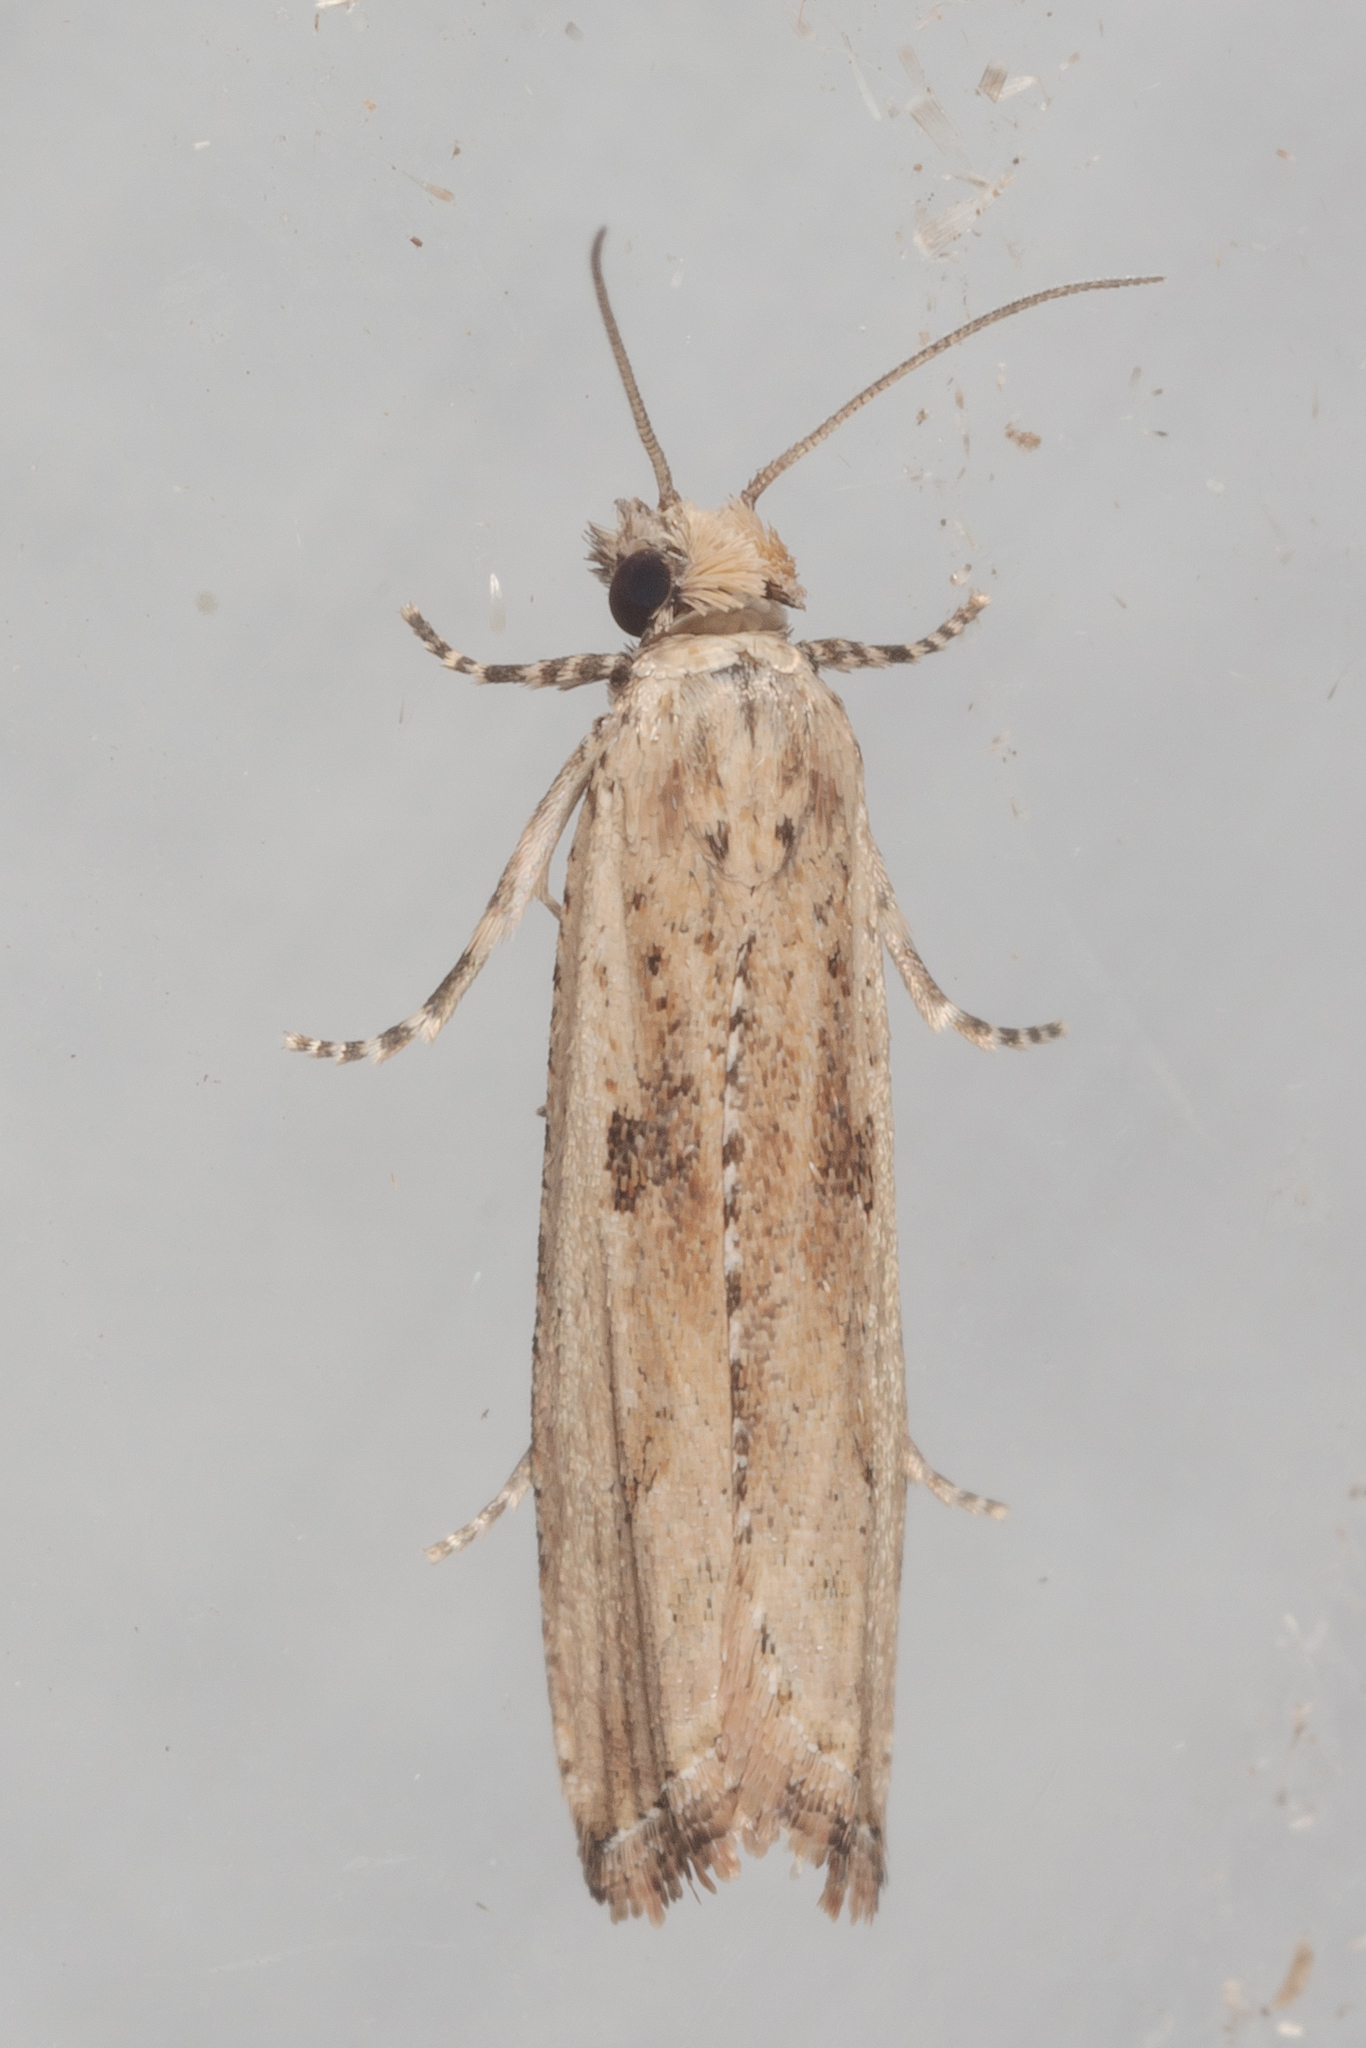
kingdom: Animalia
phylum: Arthropoda
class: Insecta
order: Lepidoptera
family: Tortricidae
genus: Bactra
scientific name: Bactra verutana
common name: Javelin moth
